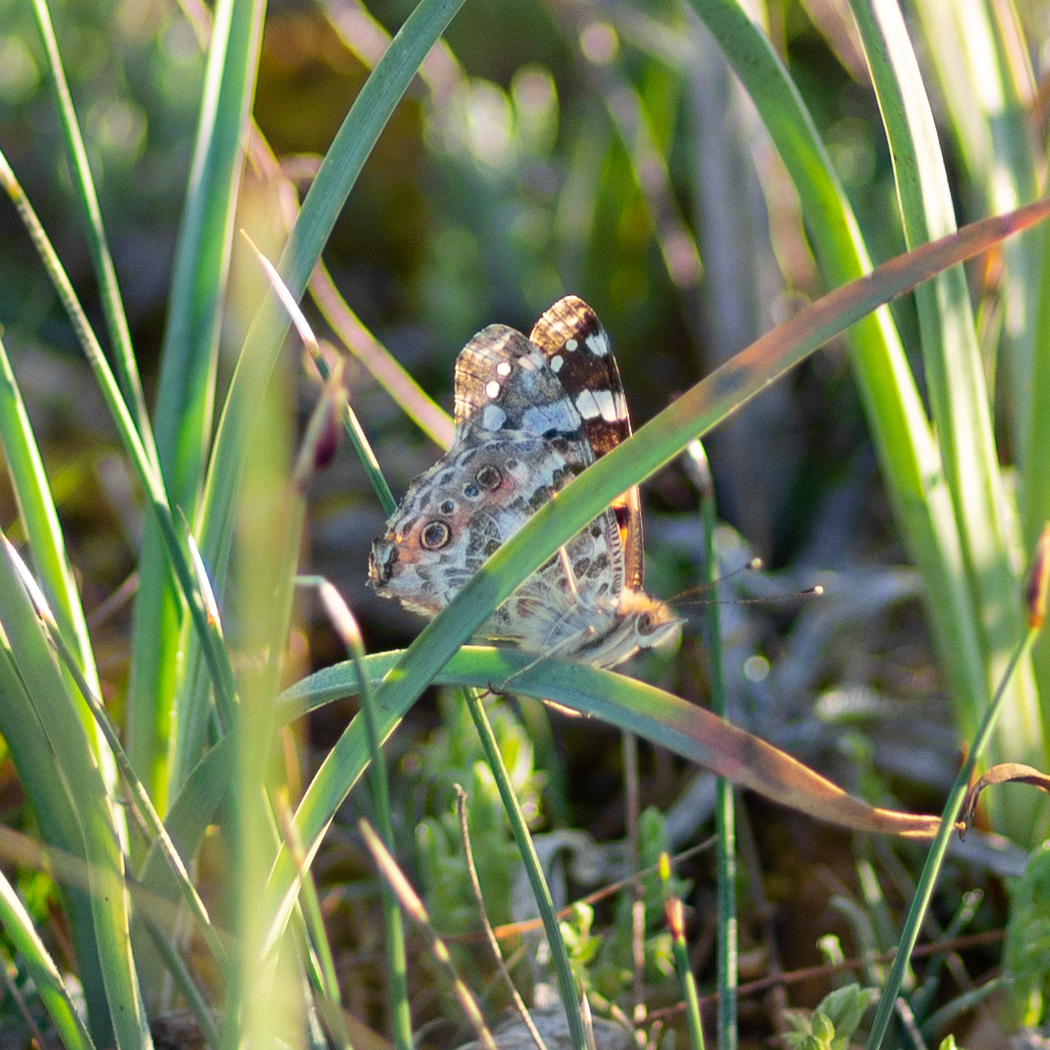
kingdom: Animalia
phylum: Arthropoda
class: Insecta
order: Lepidoptera
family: Nymphalidae
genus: Vanessa
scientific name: Vanessa cardui
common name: Painted lady
